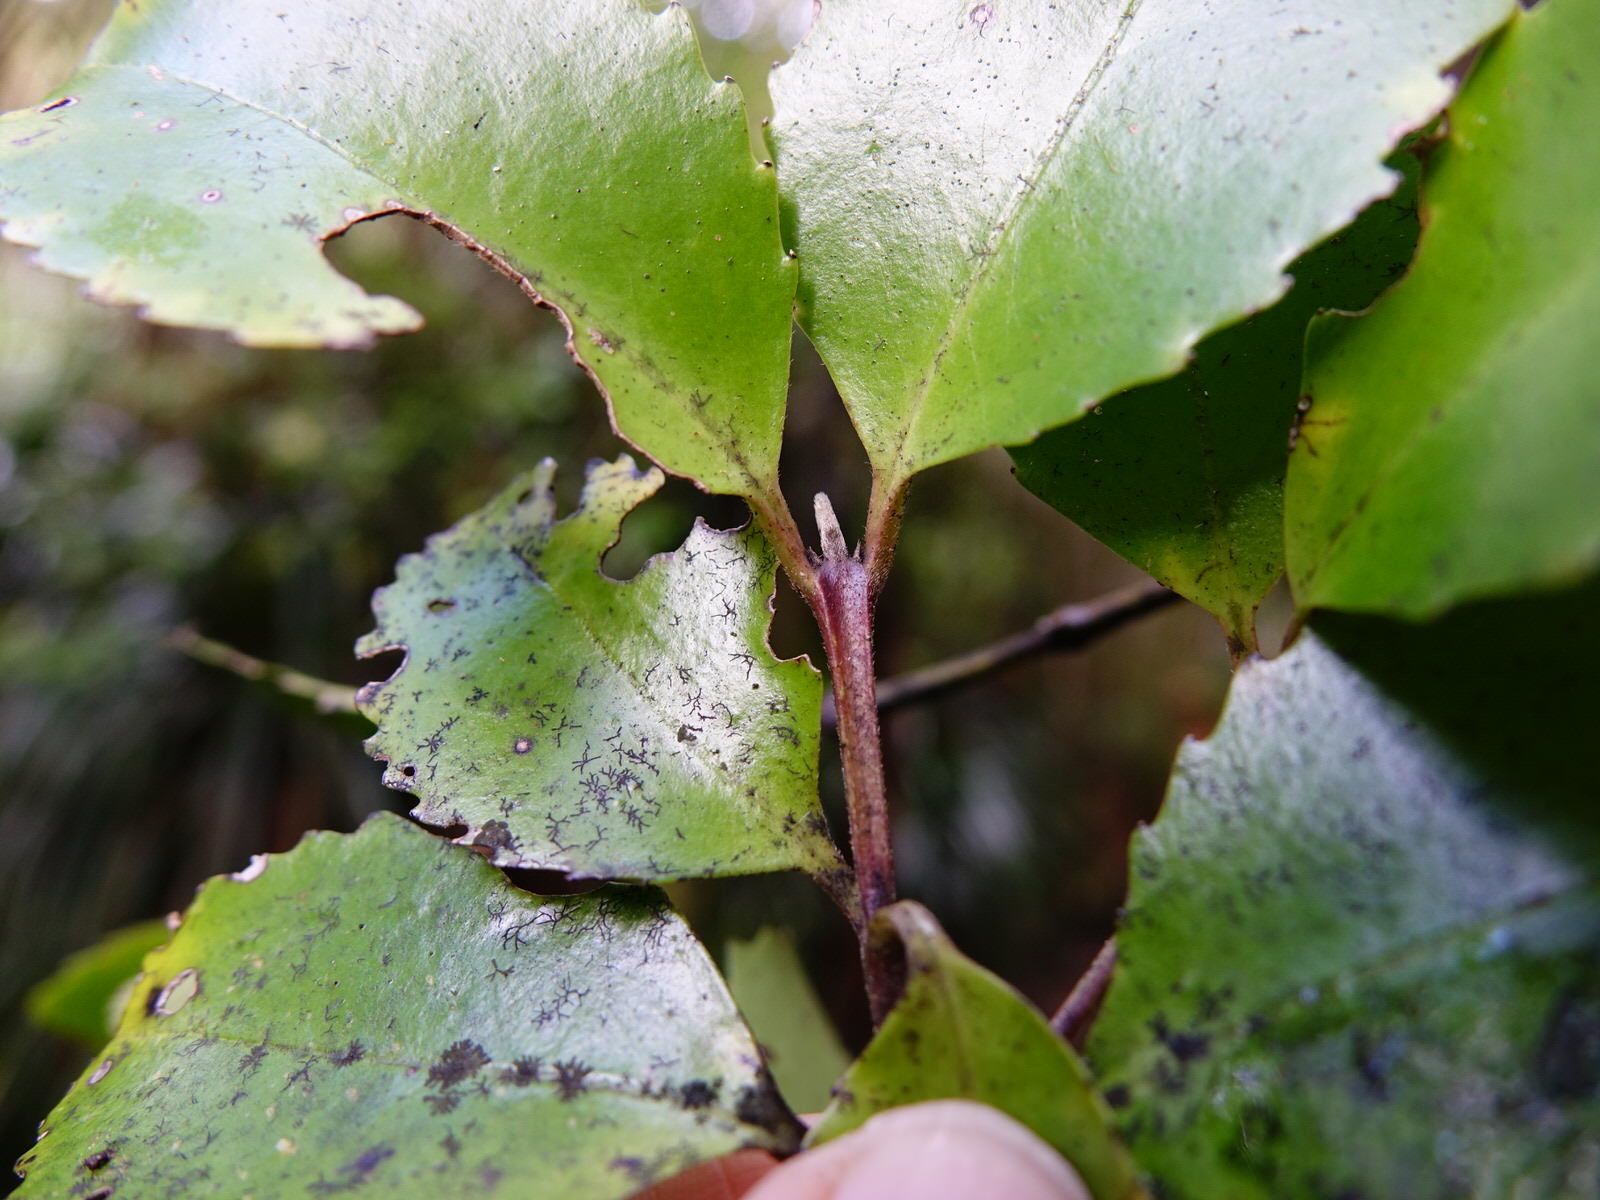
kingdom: Plantae
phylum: Tracheophyta
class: Magnoliopsida
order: Laurales
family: Atherospermataceae
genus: Laurelia
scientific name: Laurelia novae-zelandiae
